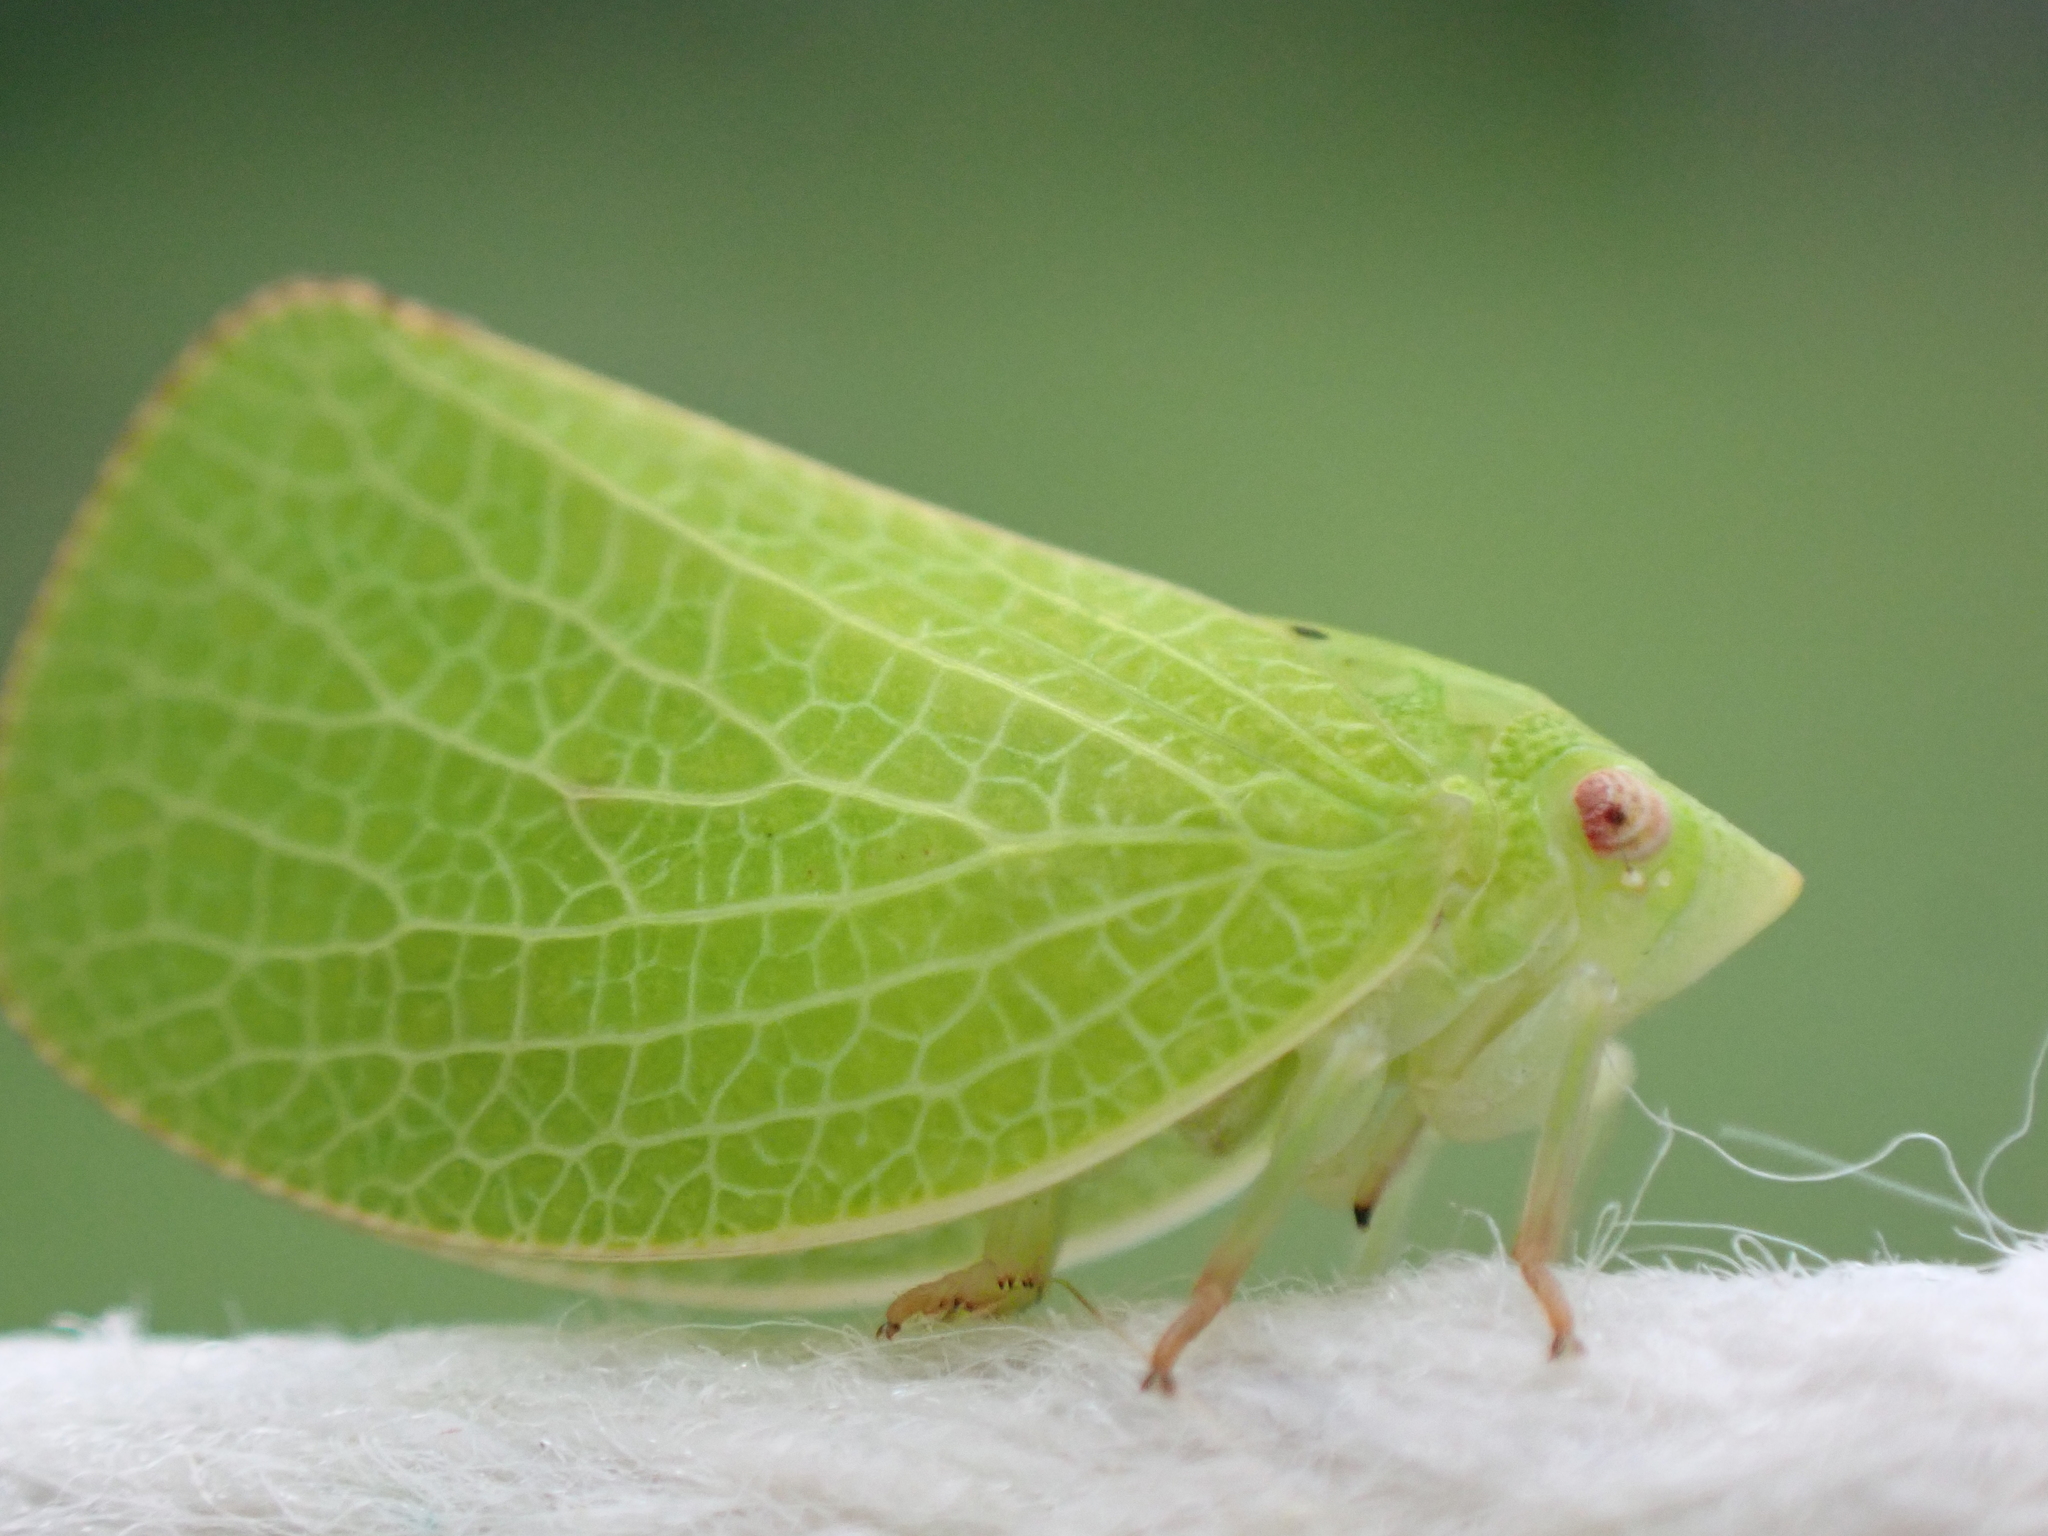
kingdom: Animalia
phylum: Arthropoda
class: Insecta
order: Hemiptera
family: Acanaloniidae
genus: Acanalonia
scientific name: Acanalonia conica
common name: Green cone-headed planthopper
